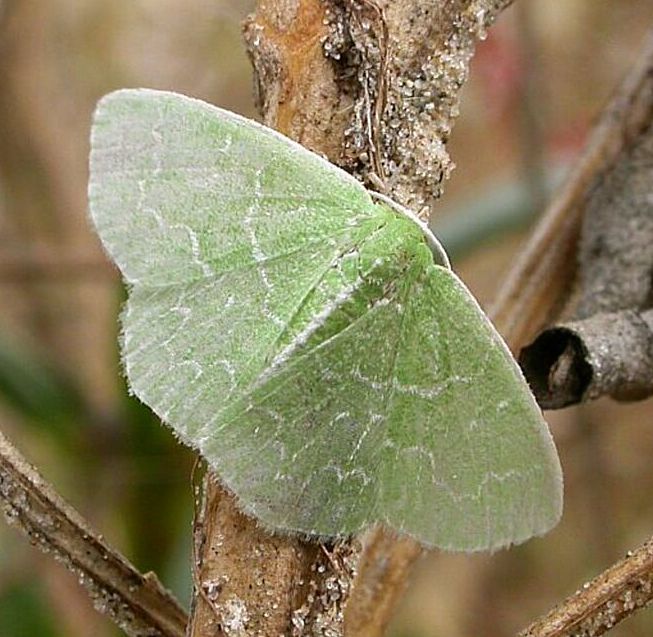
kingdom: Animalia
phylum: Arthropoda
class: Insecta
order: Lepidoptera
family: Geometridae
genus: Synchlora
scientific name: Synchlora frondaria
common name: Southern emerald
